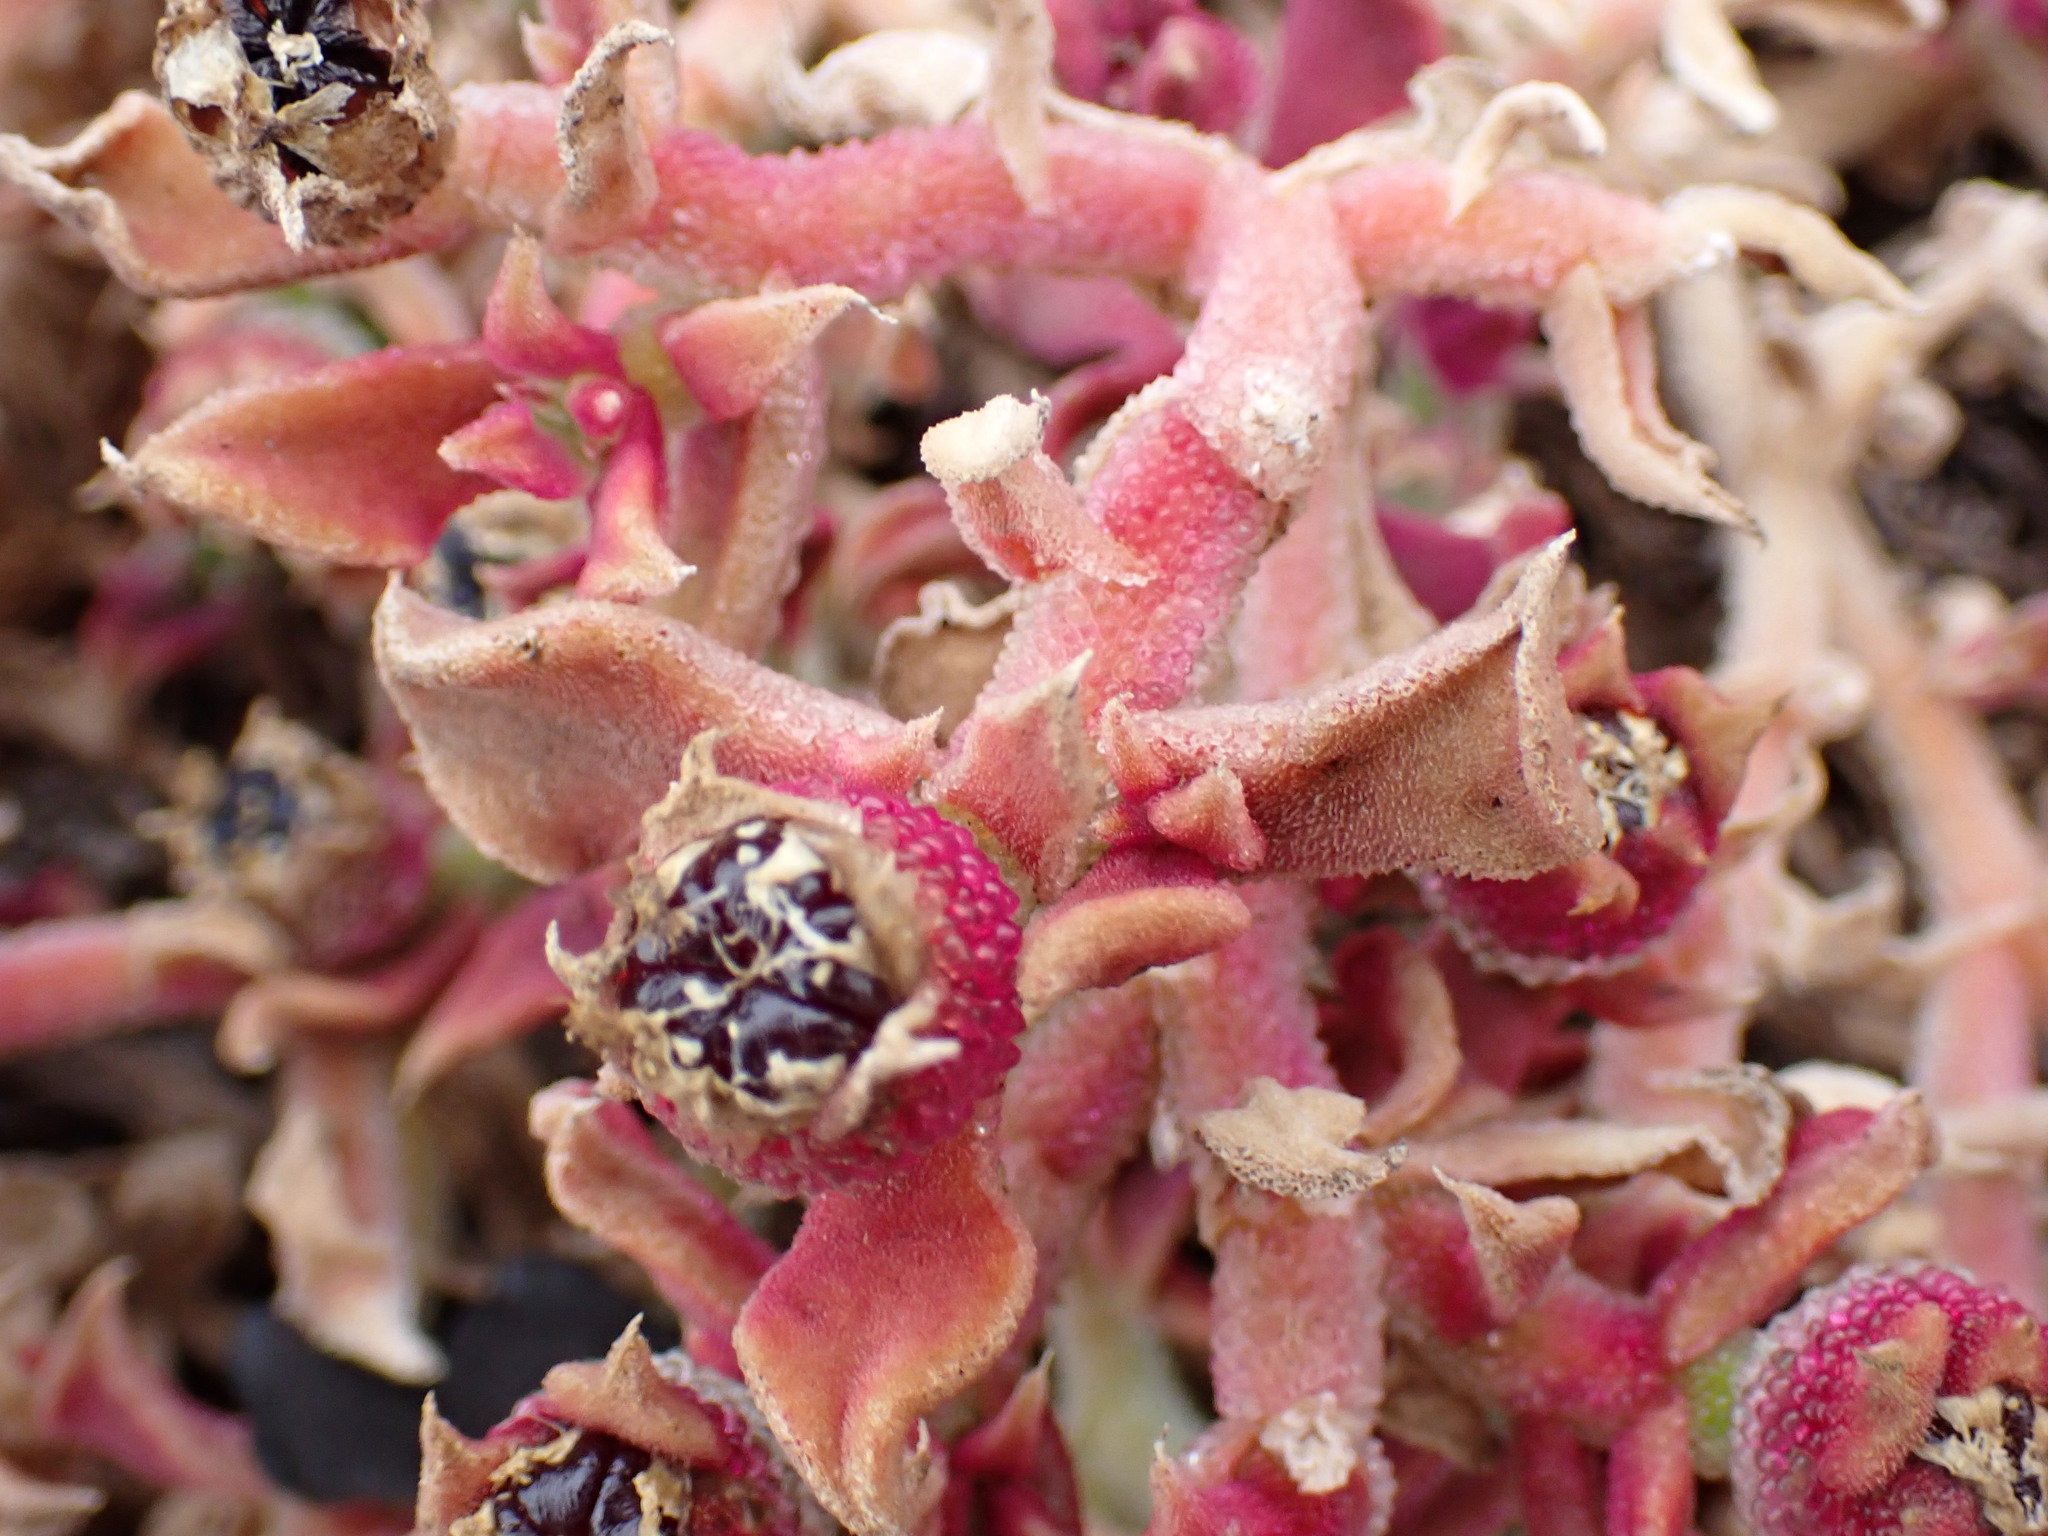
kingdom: Plantae
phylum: Tracheophyta
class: Magnoliopsida
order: Caryophyllales
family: Aizoaceae
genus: Mesembryanthemum
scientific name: Mesembryanthemum crystallinum
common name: Common iceplant
